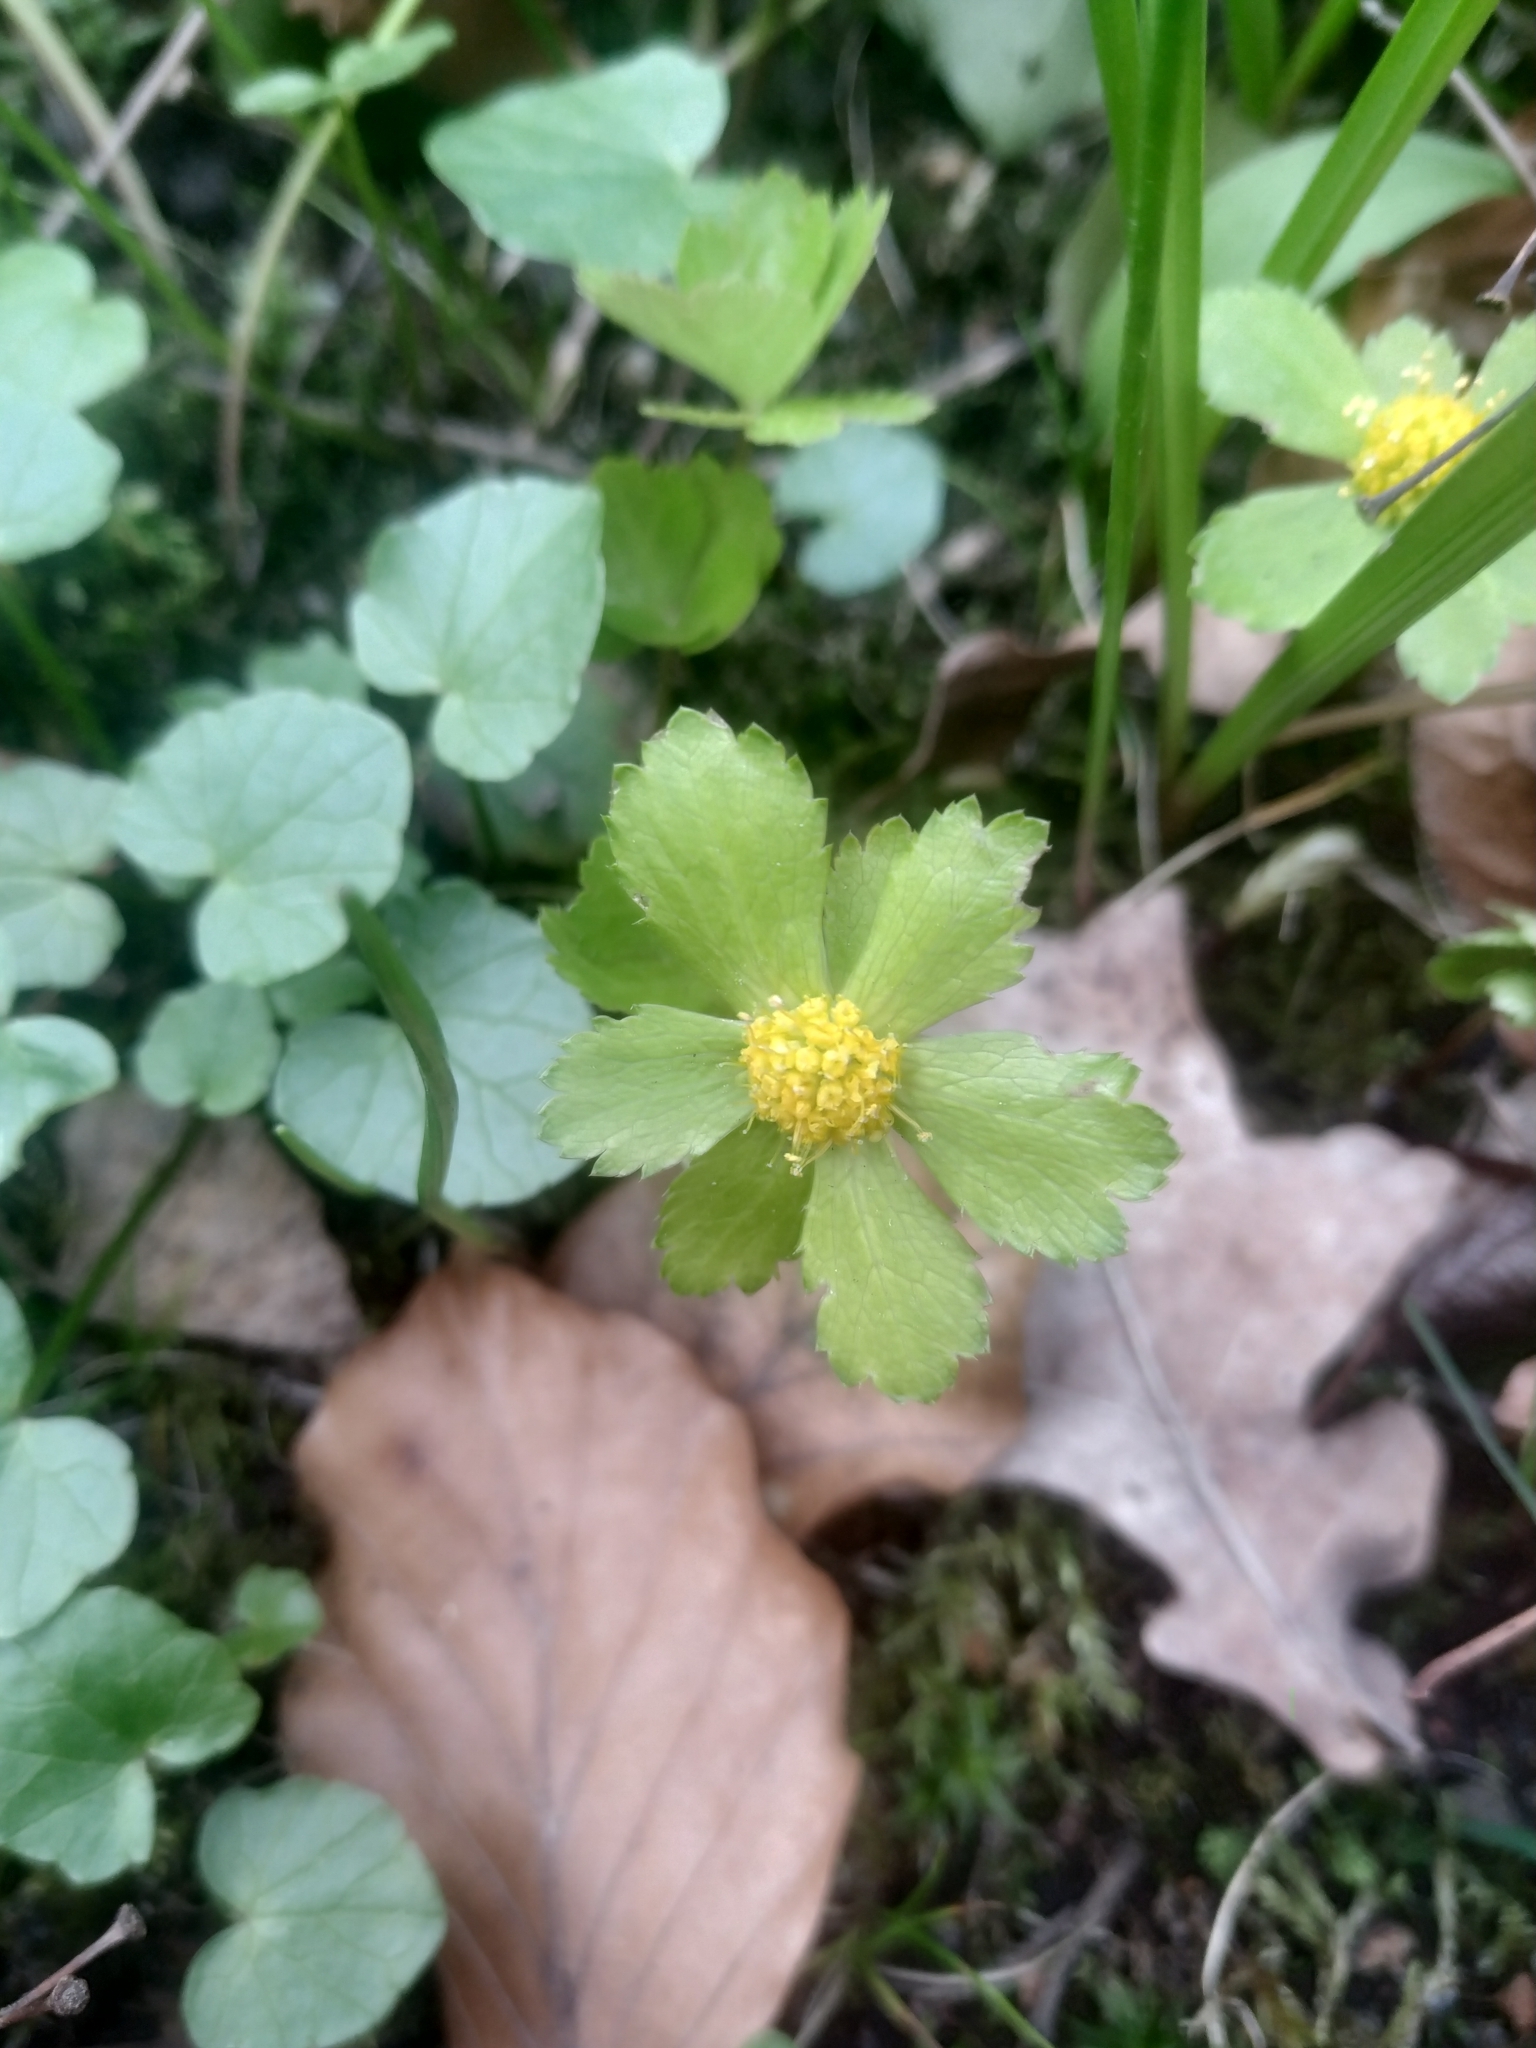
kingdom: Plantae
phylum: Tracheophyta
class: Magnoliopsida
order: Apiales
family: Apiaceae
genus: Sanicula
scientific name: Sanicula epipactis
